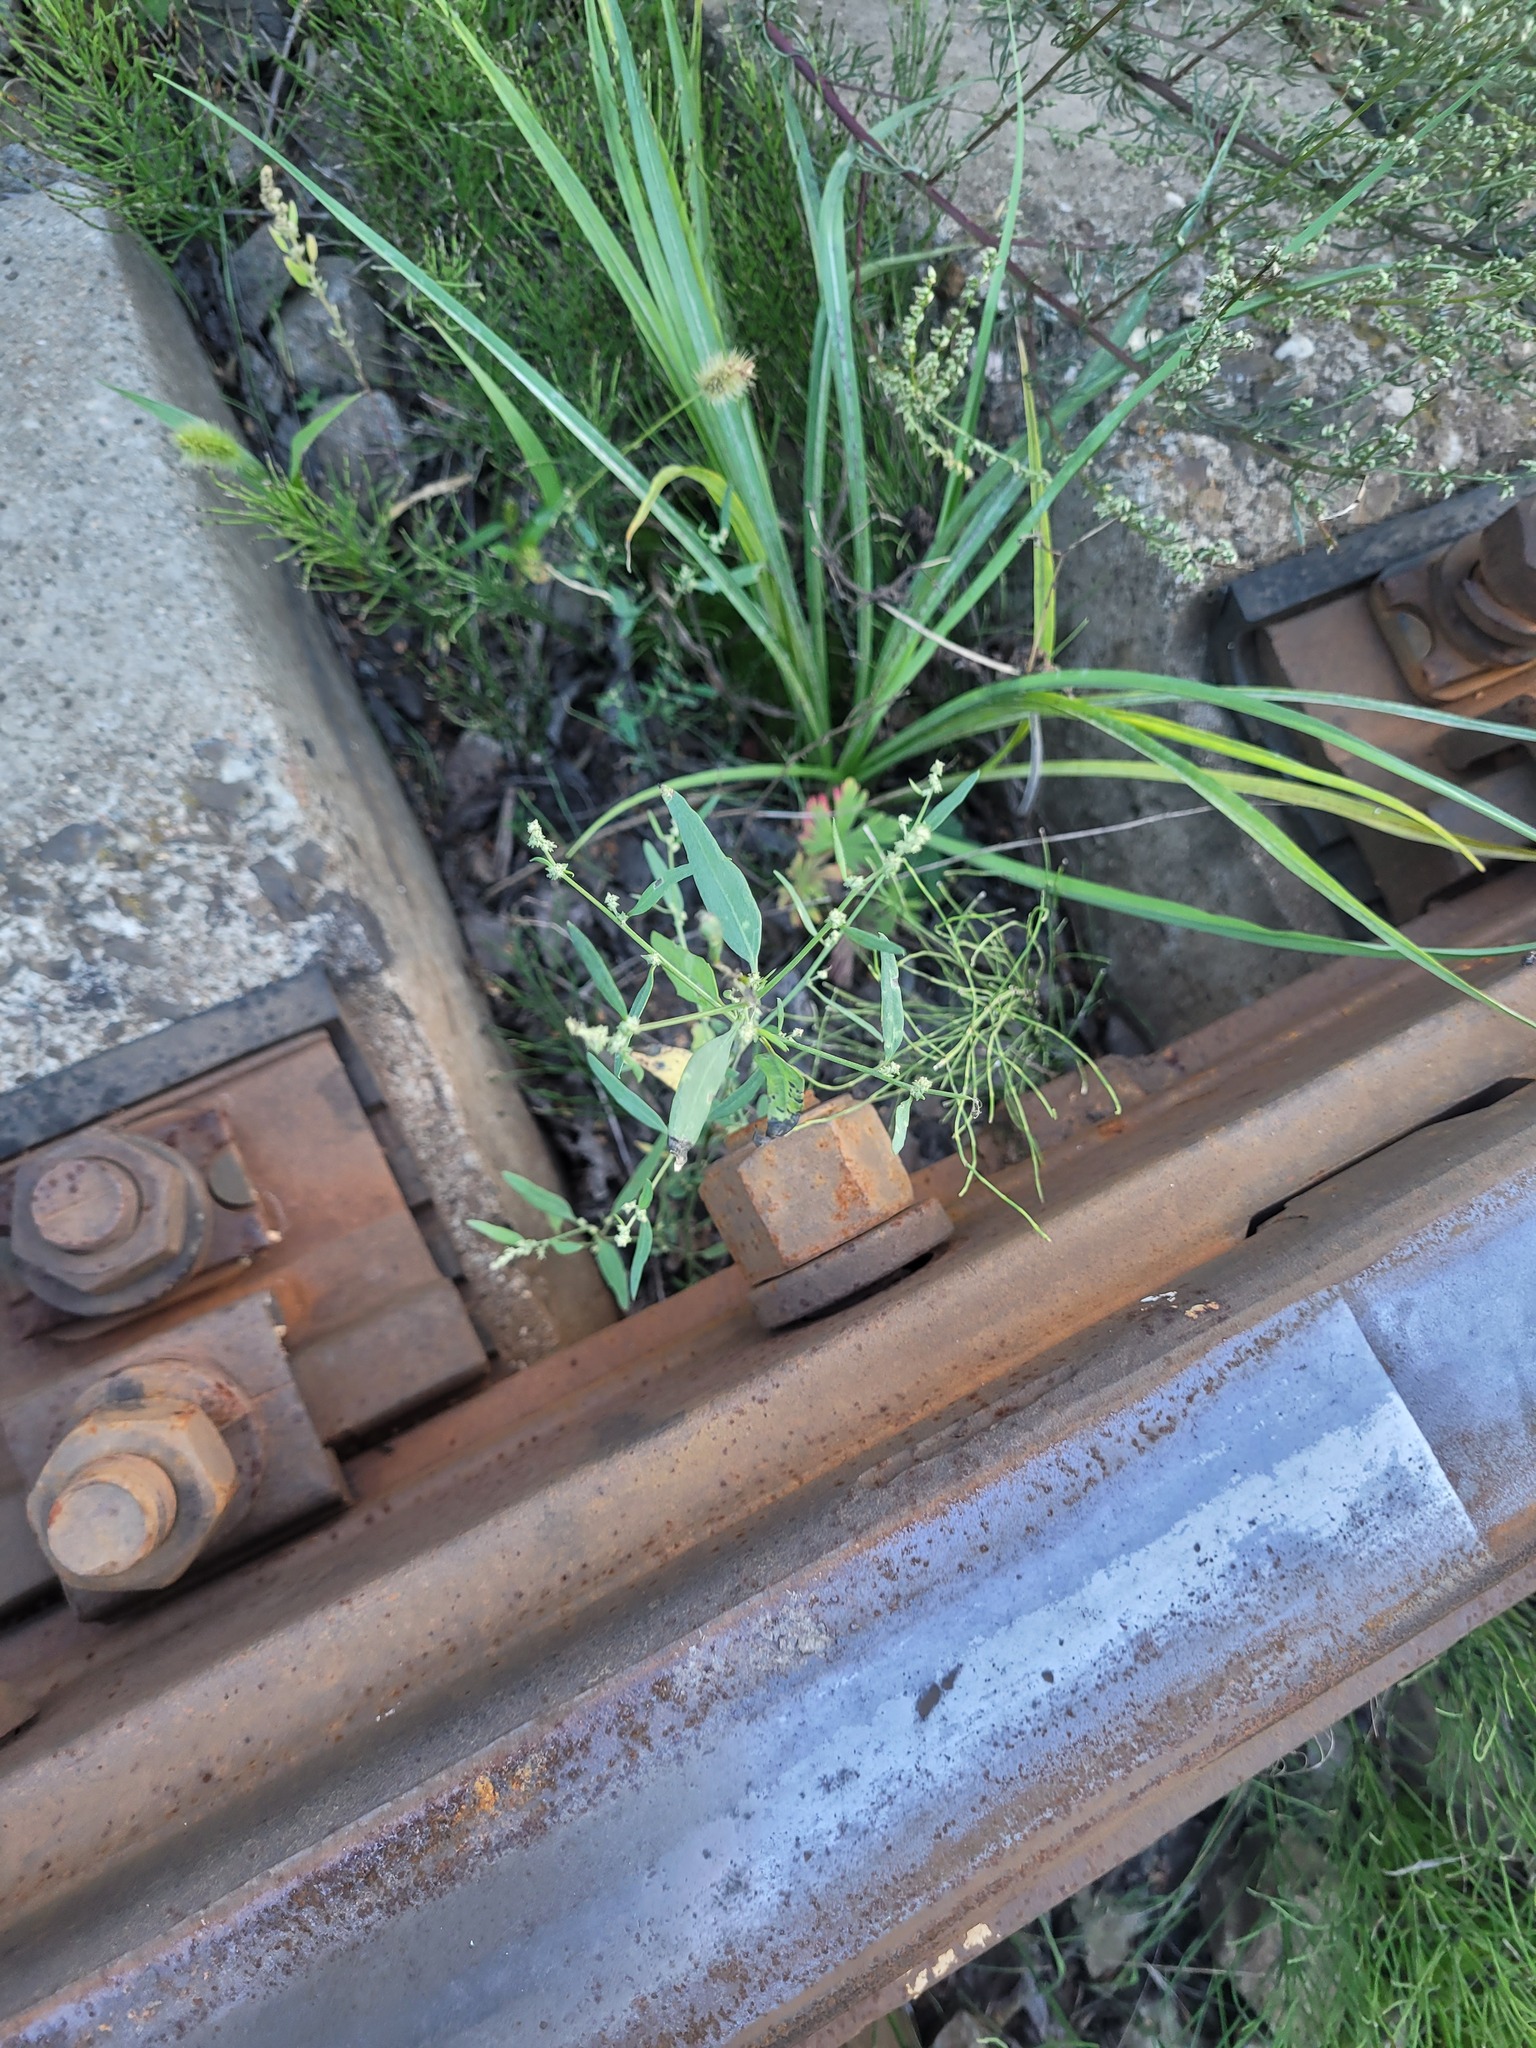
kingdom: Plantae
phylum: Tracheophyta
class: Magnoliopsida
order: Caryophyllales
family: Amaranthaceae
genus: Atriplex
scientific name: Atriplex patula
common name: Common orache
